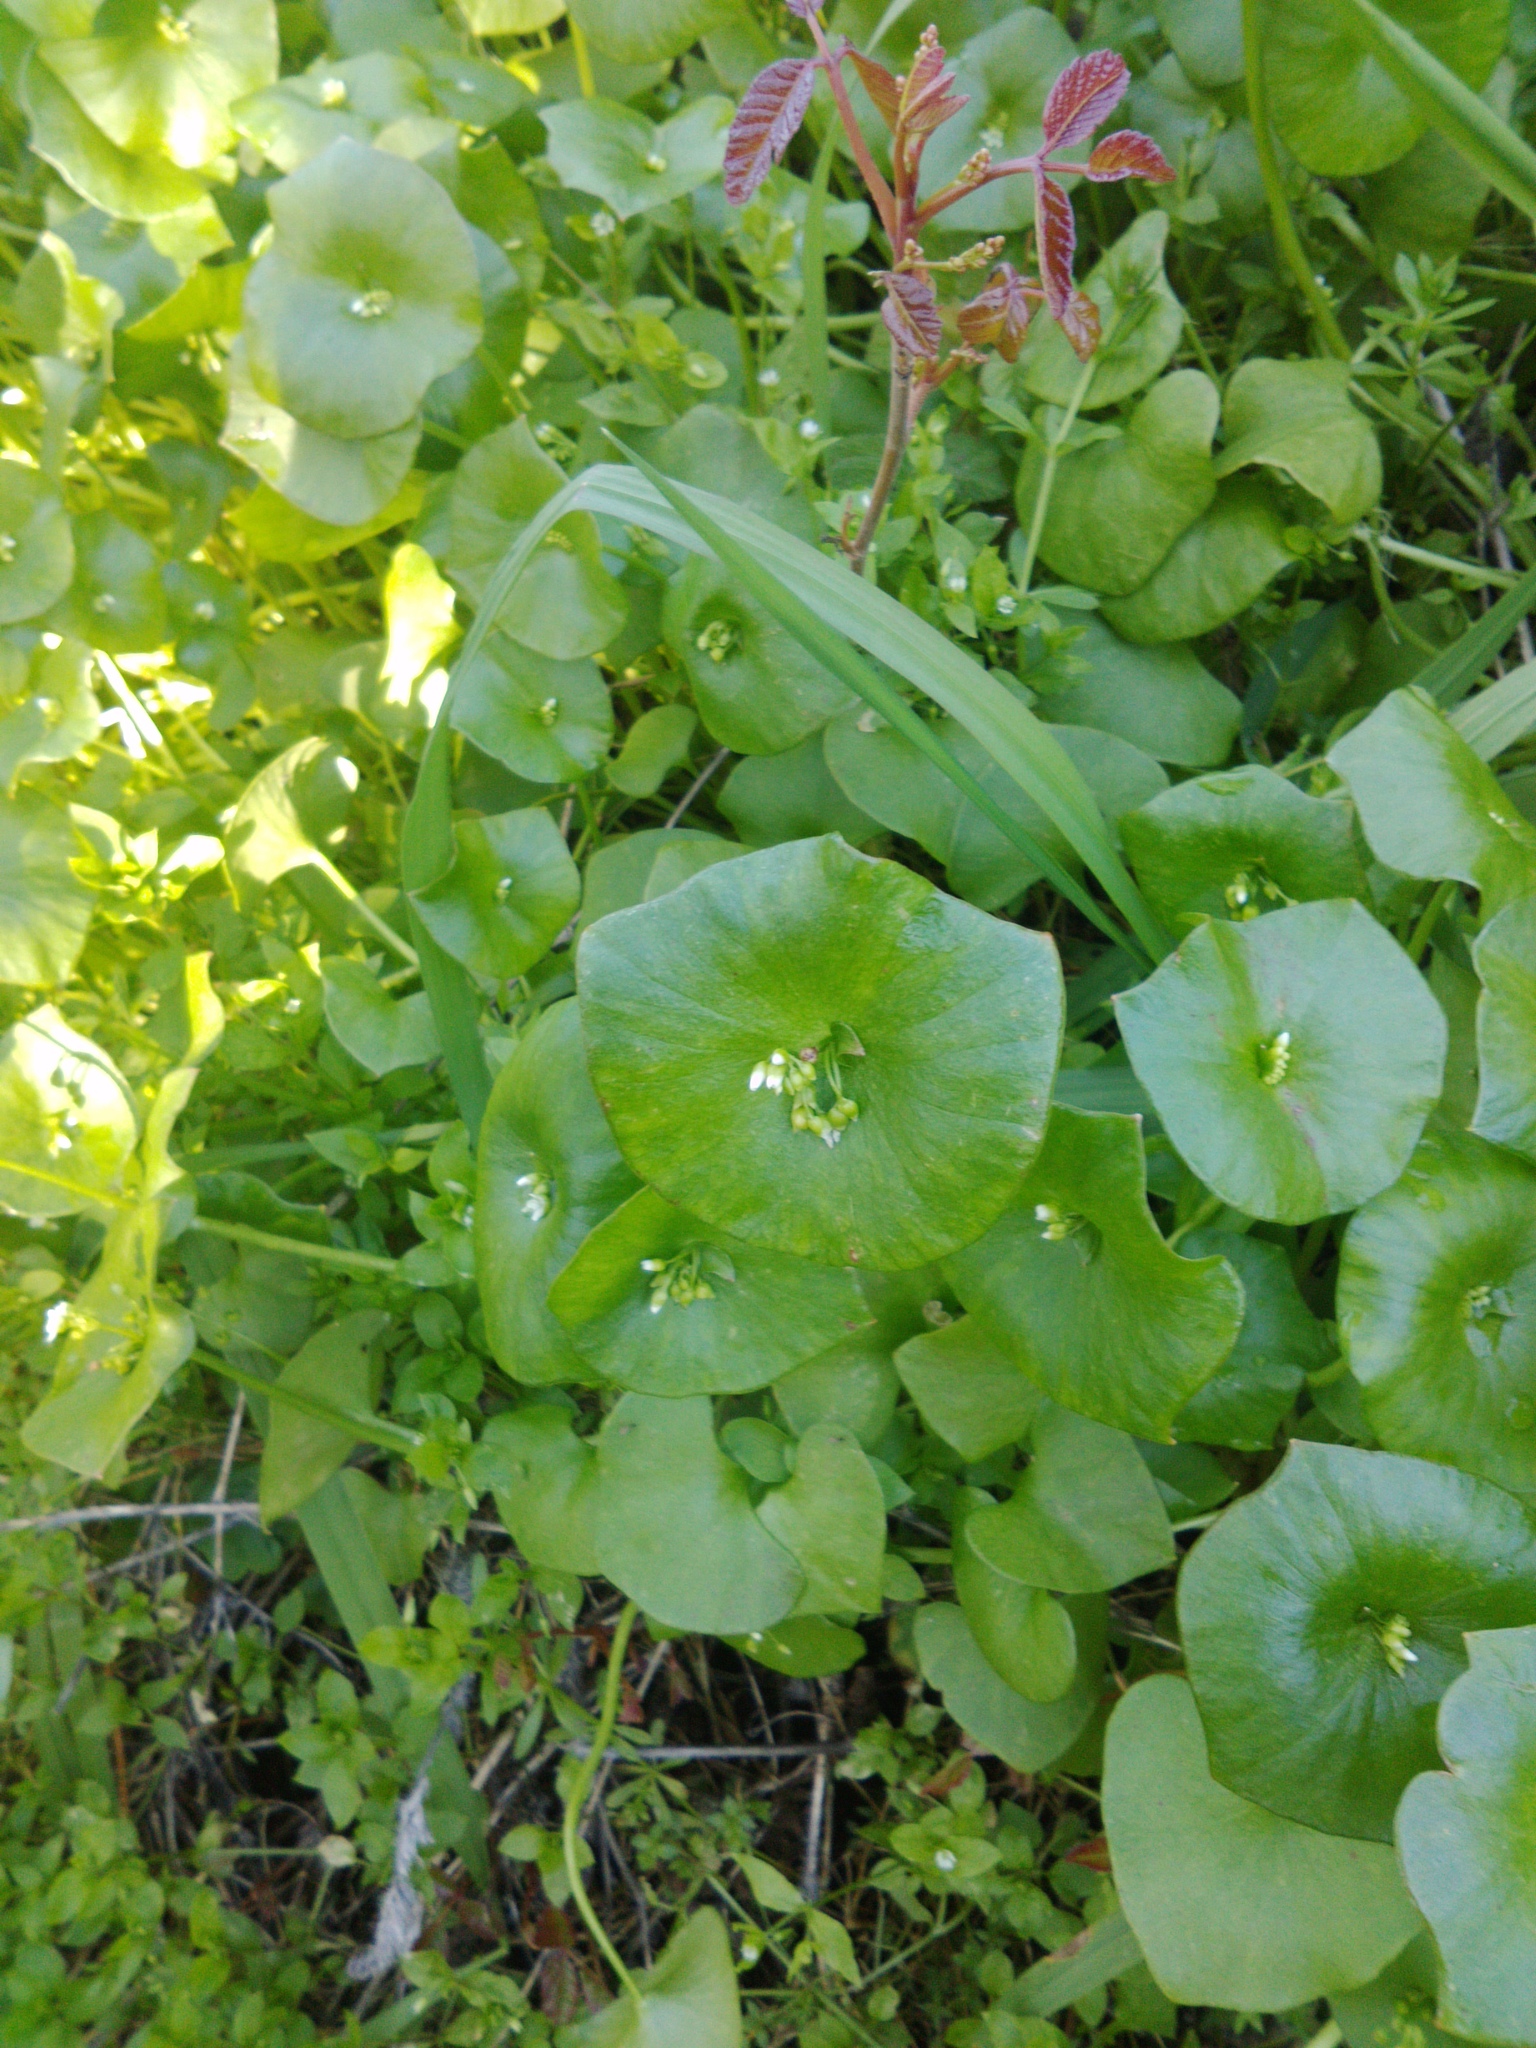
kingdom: Plantae
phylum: Tracheophyta
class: Magnoliopsida
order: Caryophyllales
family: Montiaceae
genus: Claytonia
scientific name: Claytonia perfoliata
